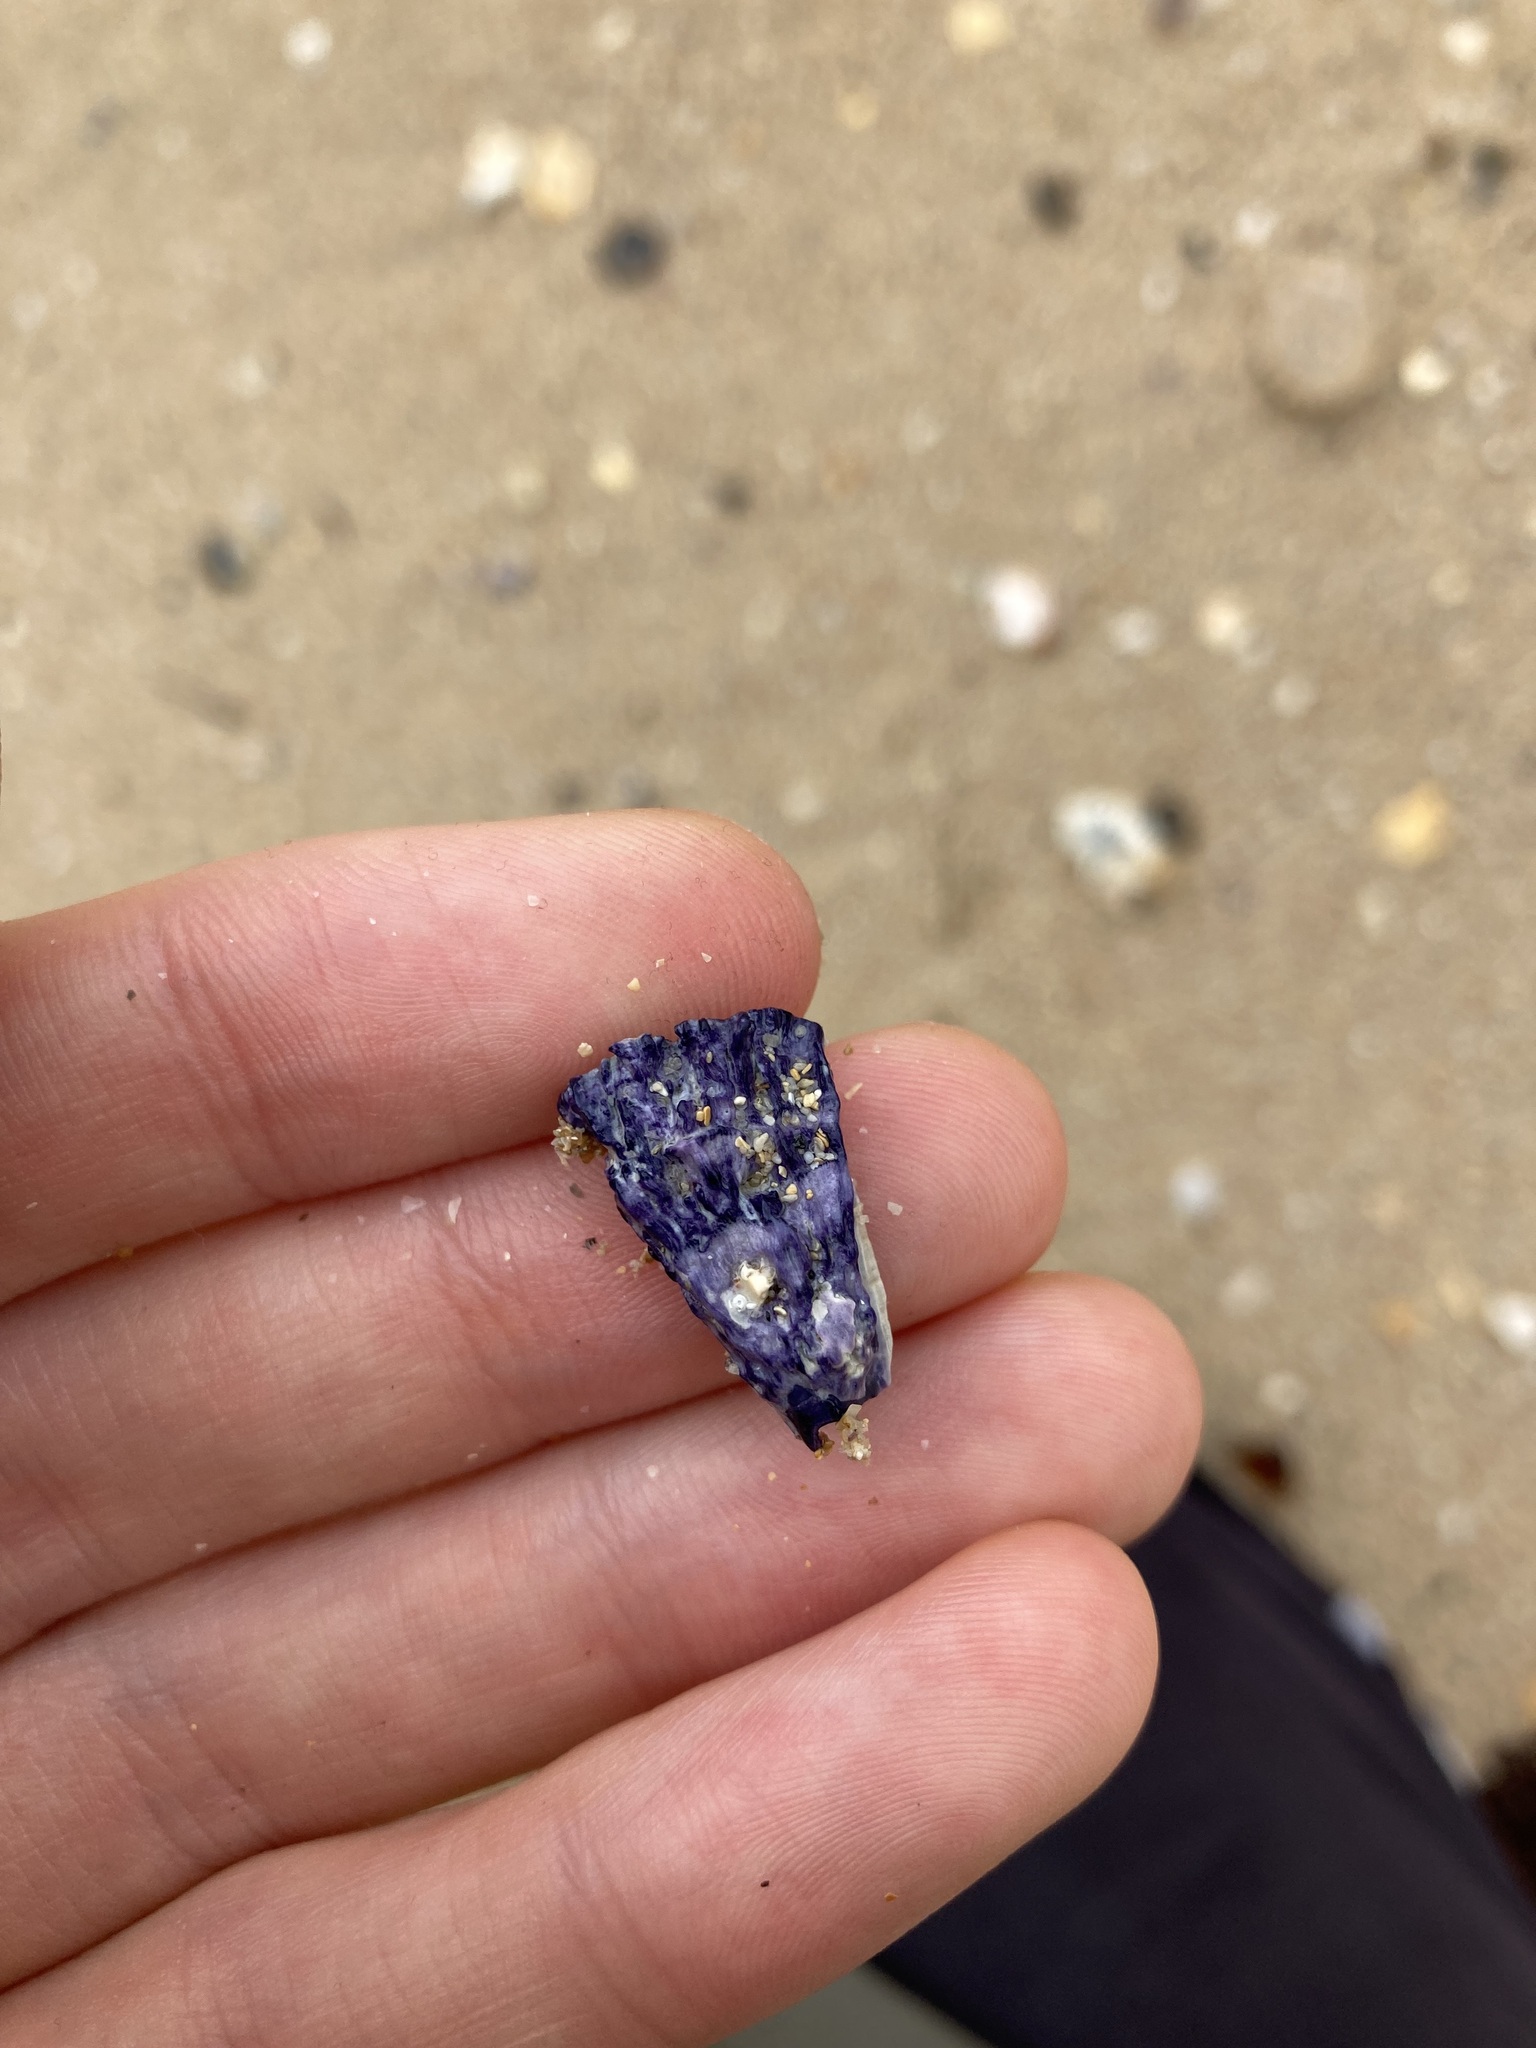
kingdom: Animalia
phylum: Arthropoda
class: Maxillopoda
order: Sessilia
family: Austrobalanidae
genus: Austrobalanus
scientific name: Austrobalanus imperator
